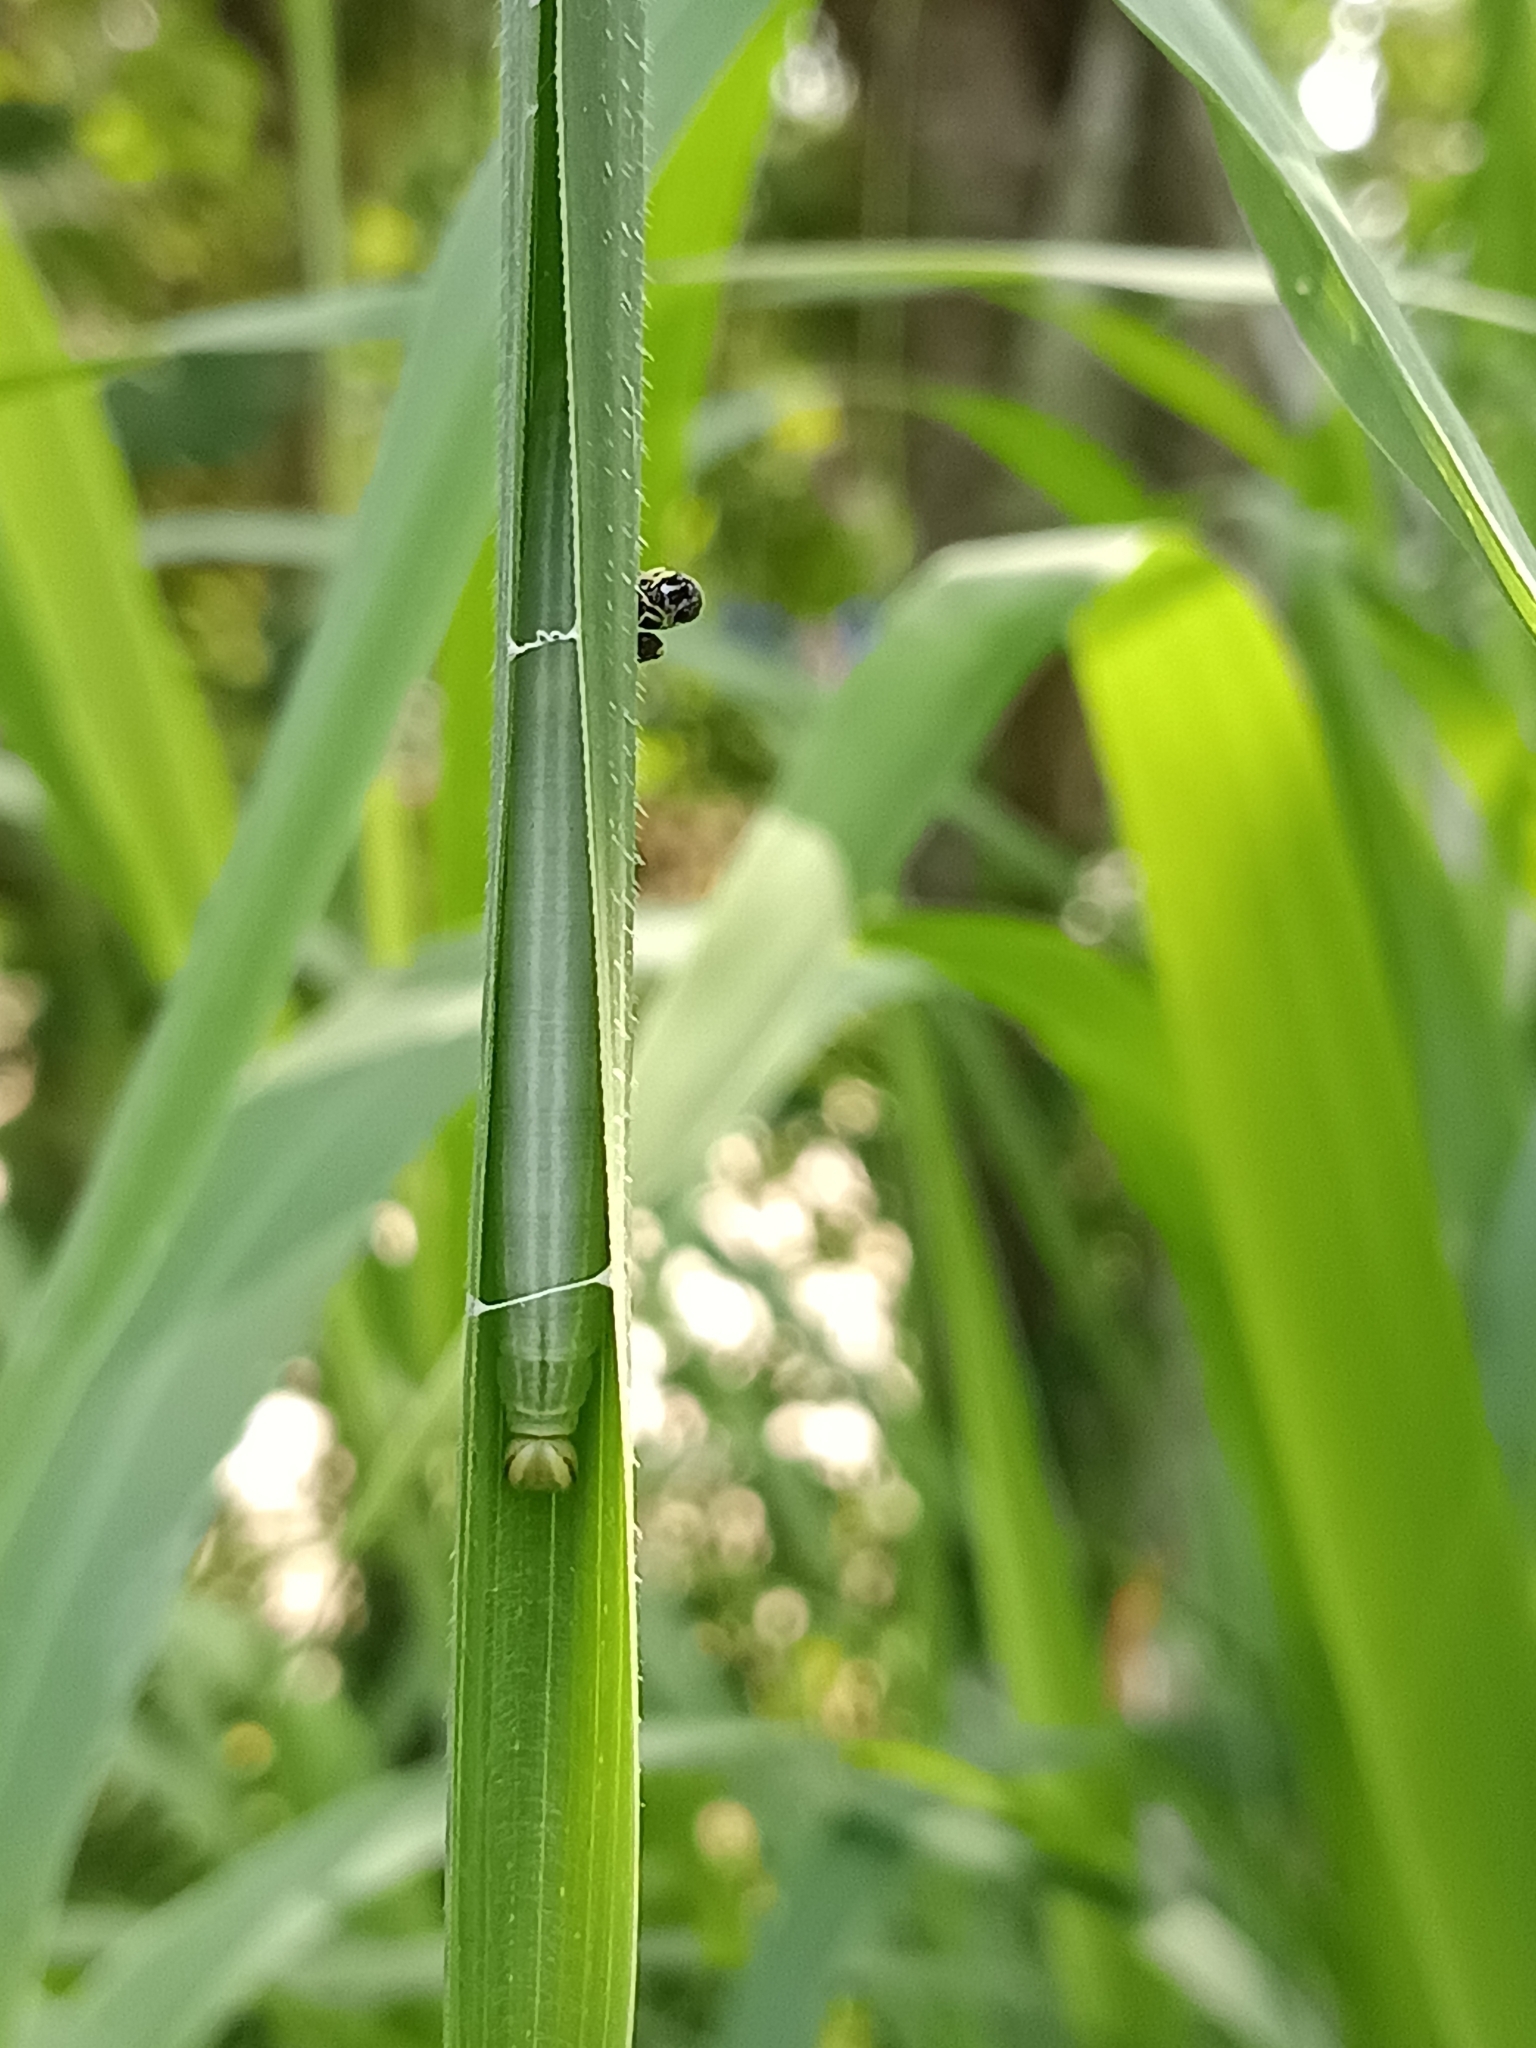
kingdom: Animalia
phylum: Arthropoda
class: Insecta
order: Lepidoptera
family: Hesperiidae
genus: Borbo
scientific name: Borbo cinnara
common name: Formosan swift
